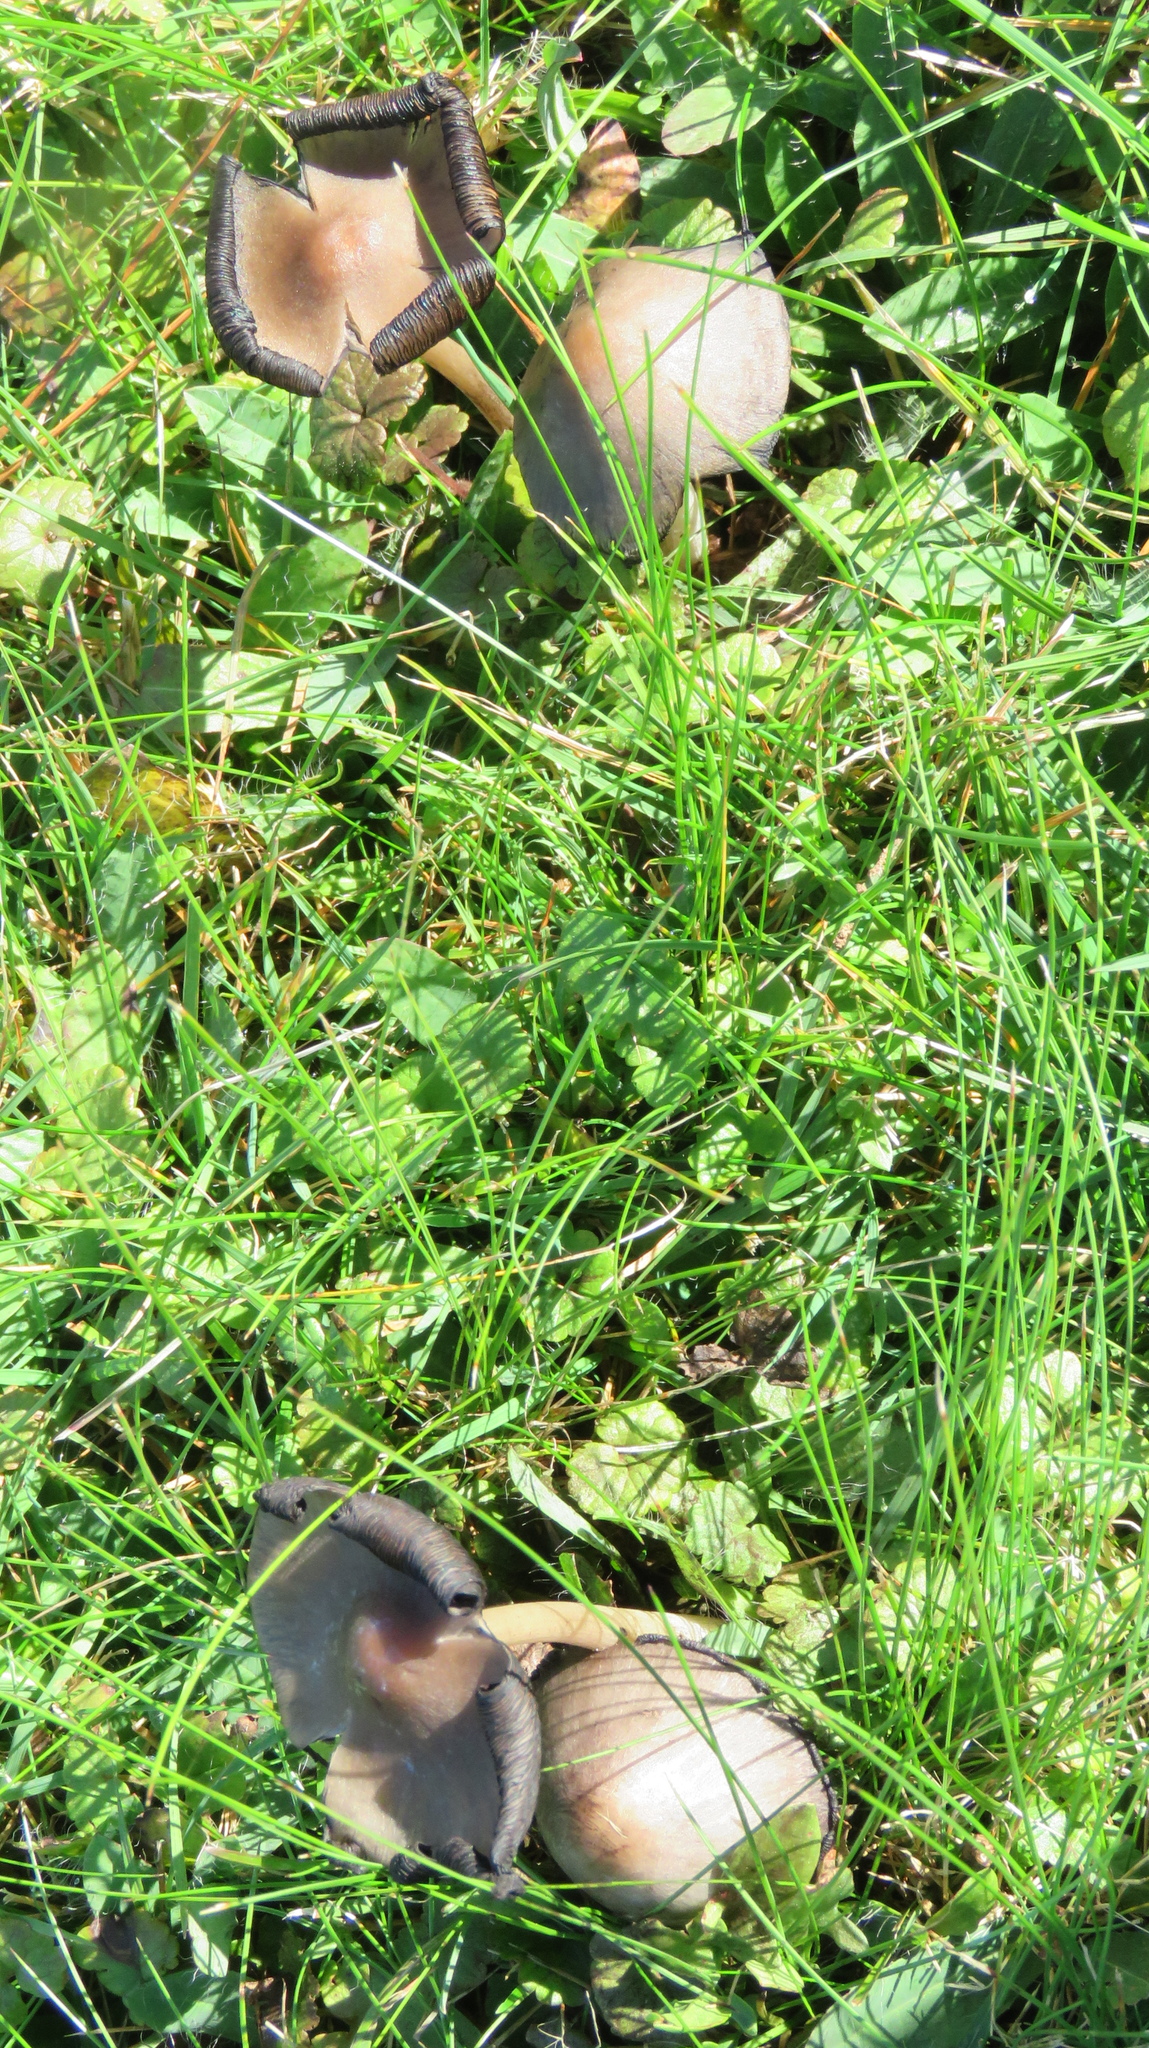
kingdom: Fungi
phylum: Basidiomycota
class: Agaricomycetes
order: Agaricales
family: Psathyrellaceae
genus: Coprinopsis
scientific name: Coprinopsis atramentaria
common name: Common ink-cap
